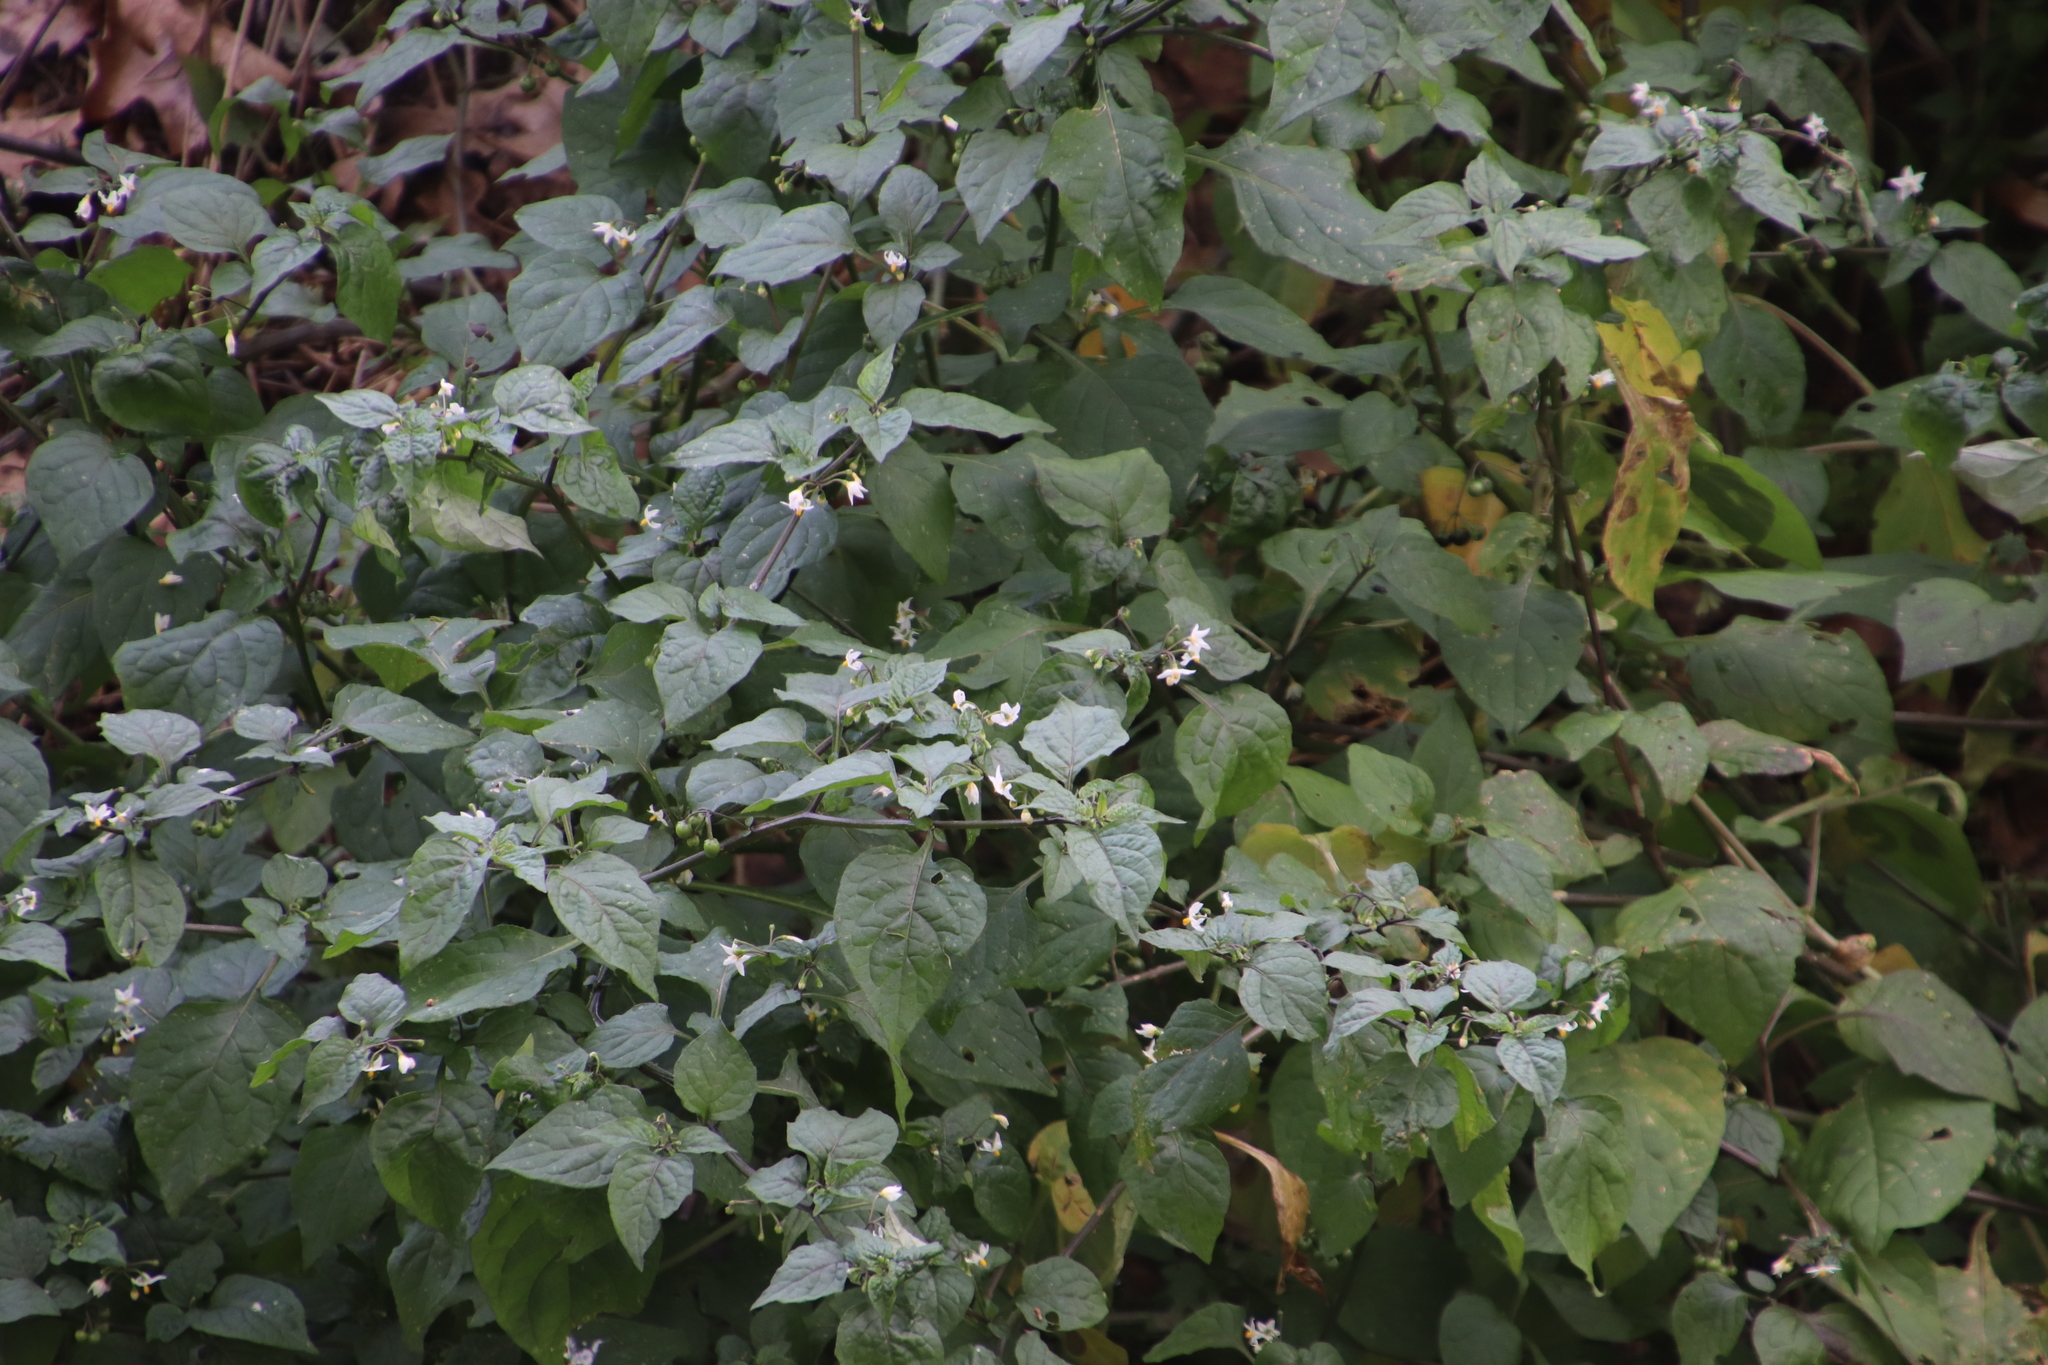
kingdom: Plantae
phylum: Tracheophyta
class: Magnoliopsida
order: Solanales
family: Solanaceae
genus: Solanum
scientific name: Solanum nigrum
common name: Black nightshade
